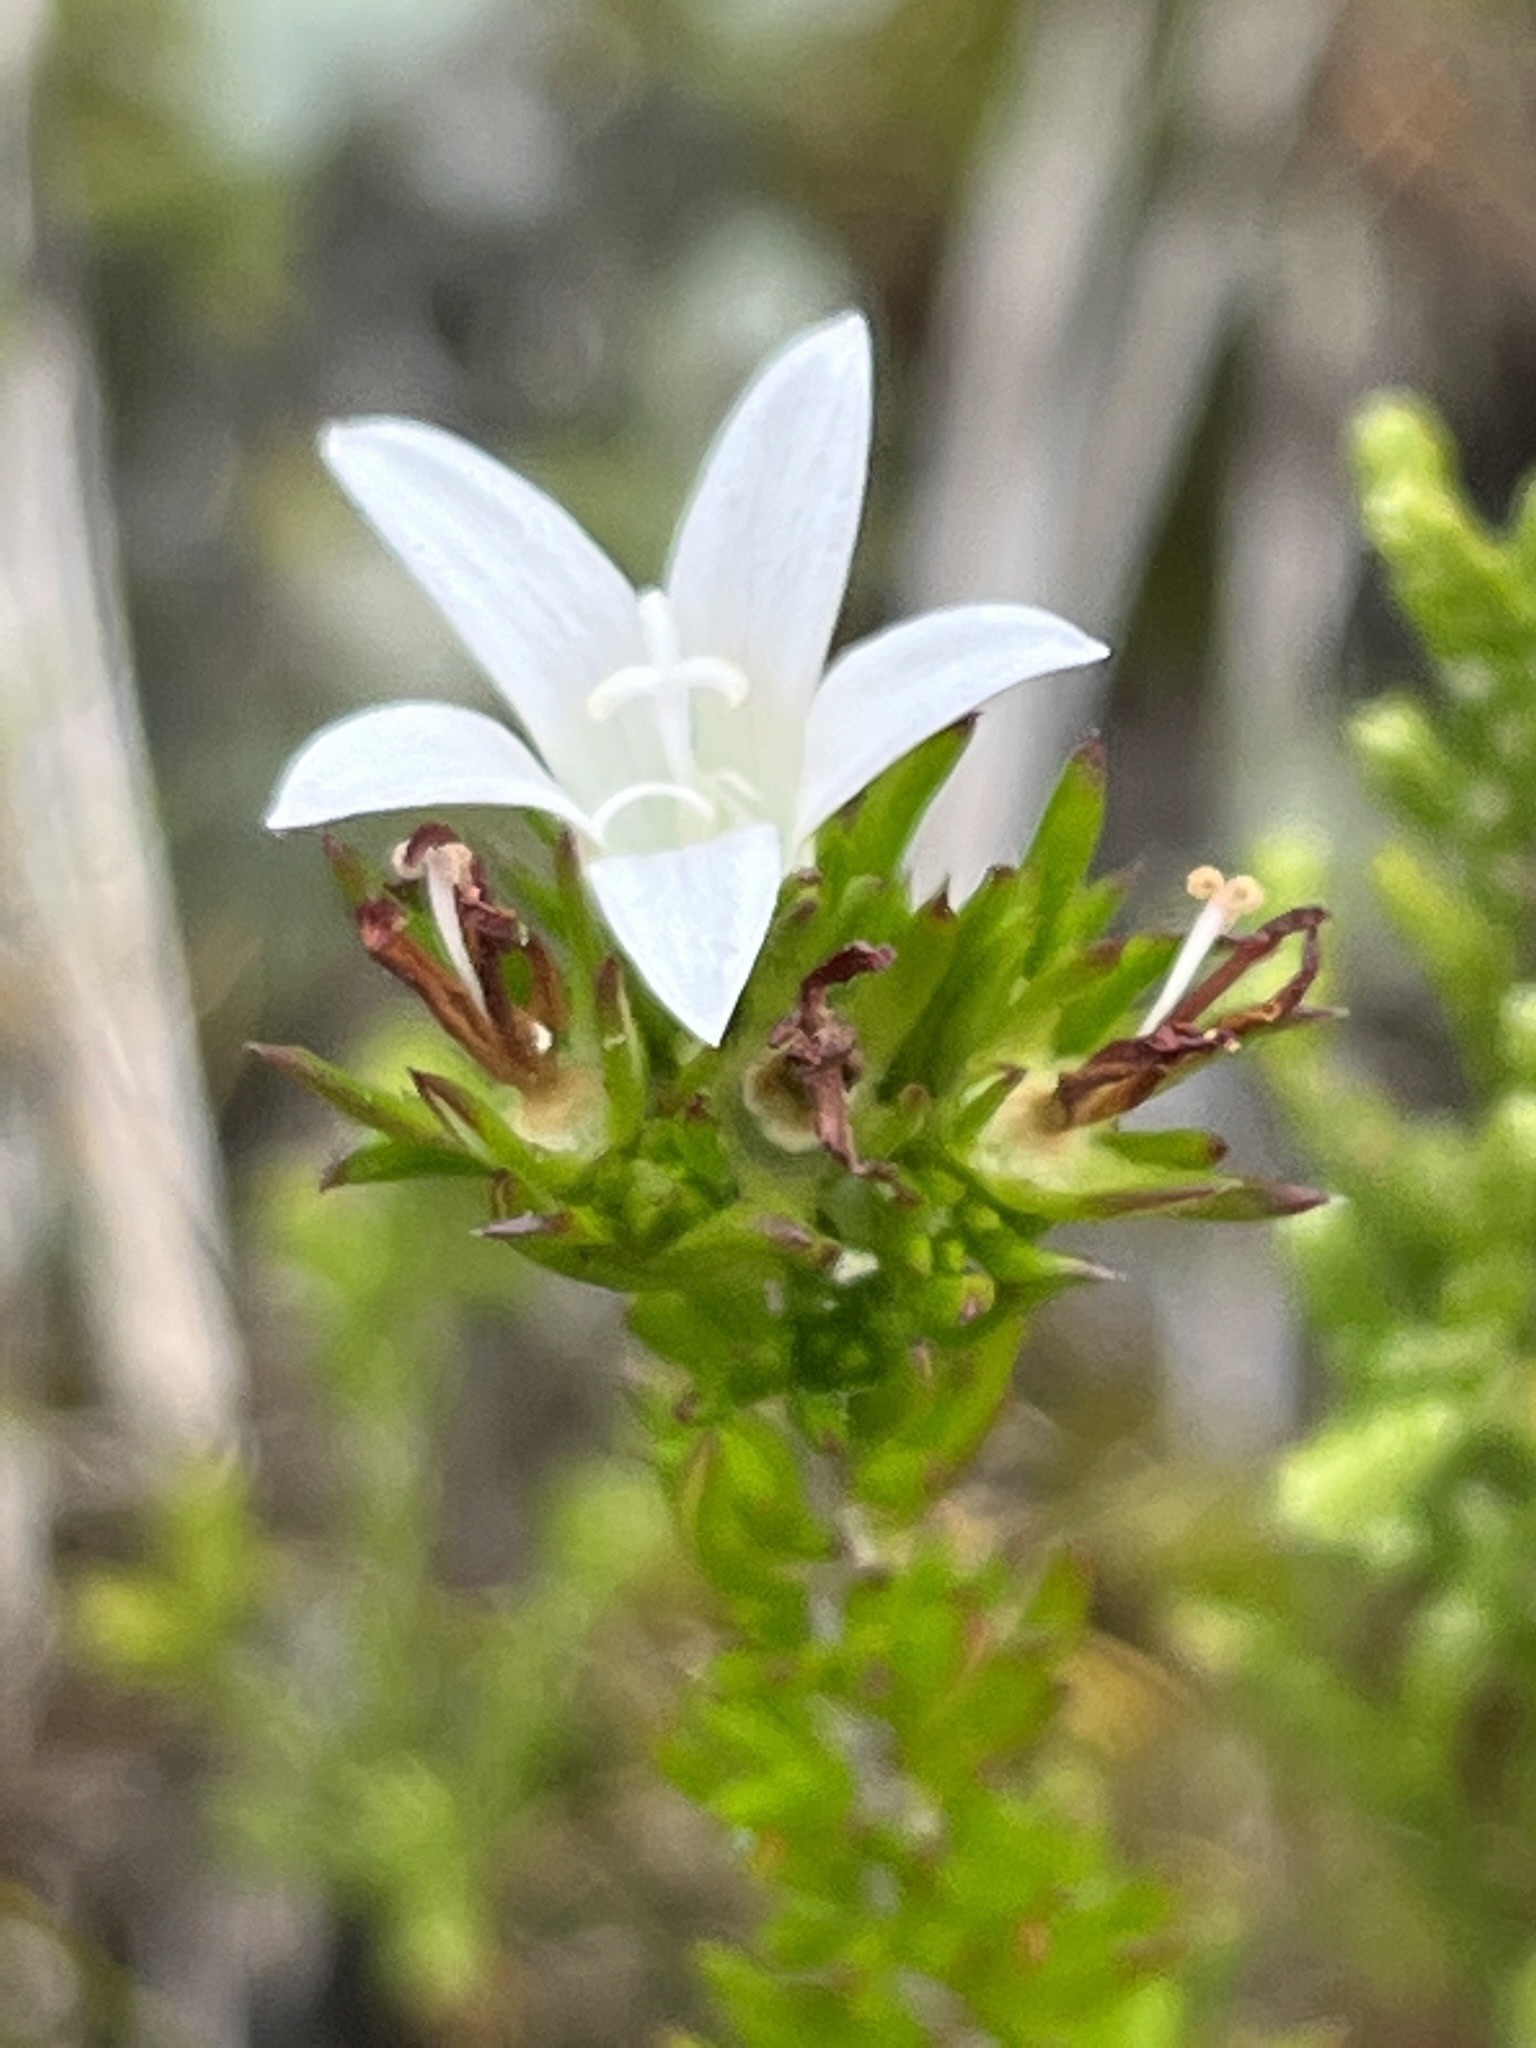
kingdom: Plantae
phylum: Tracheophyta
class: Magnoliopsida
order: Asterales
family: Campanulaceae
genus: Wahlenbergia
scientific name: Wahlenbergia calcarea
